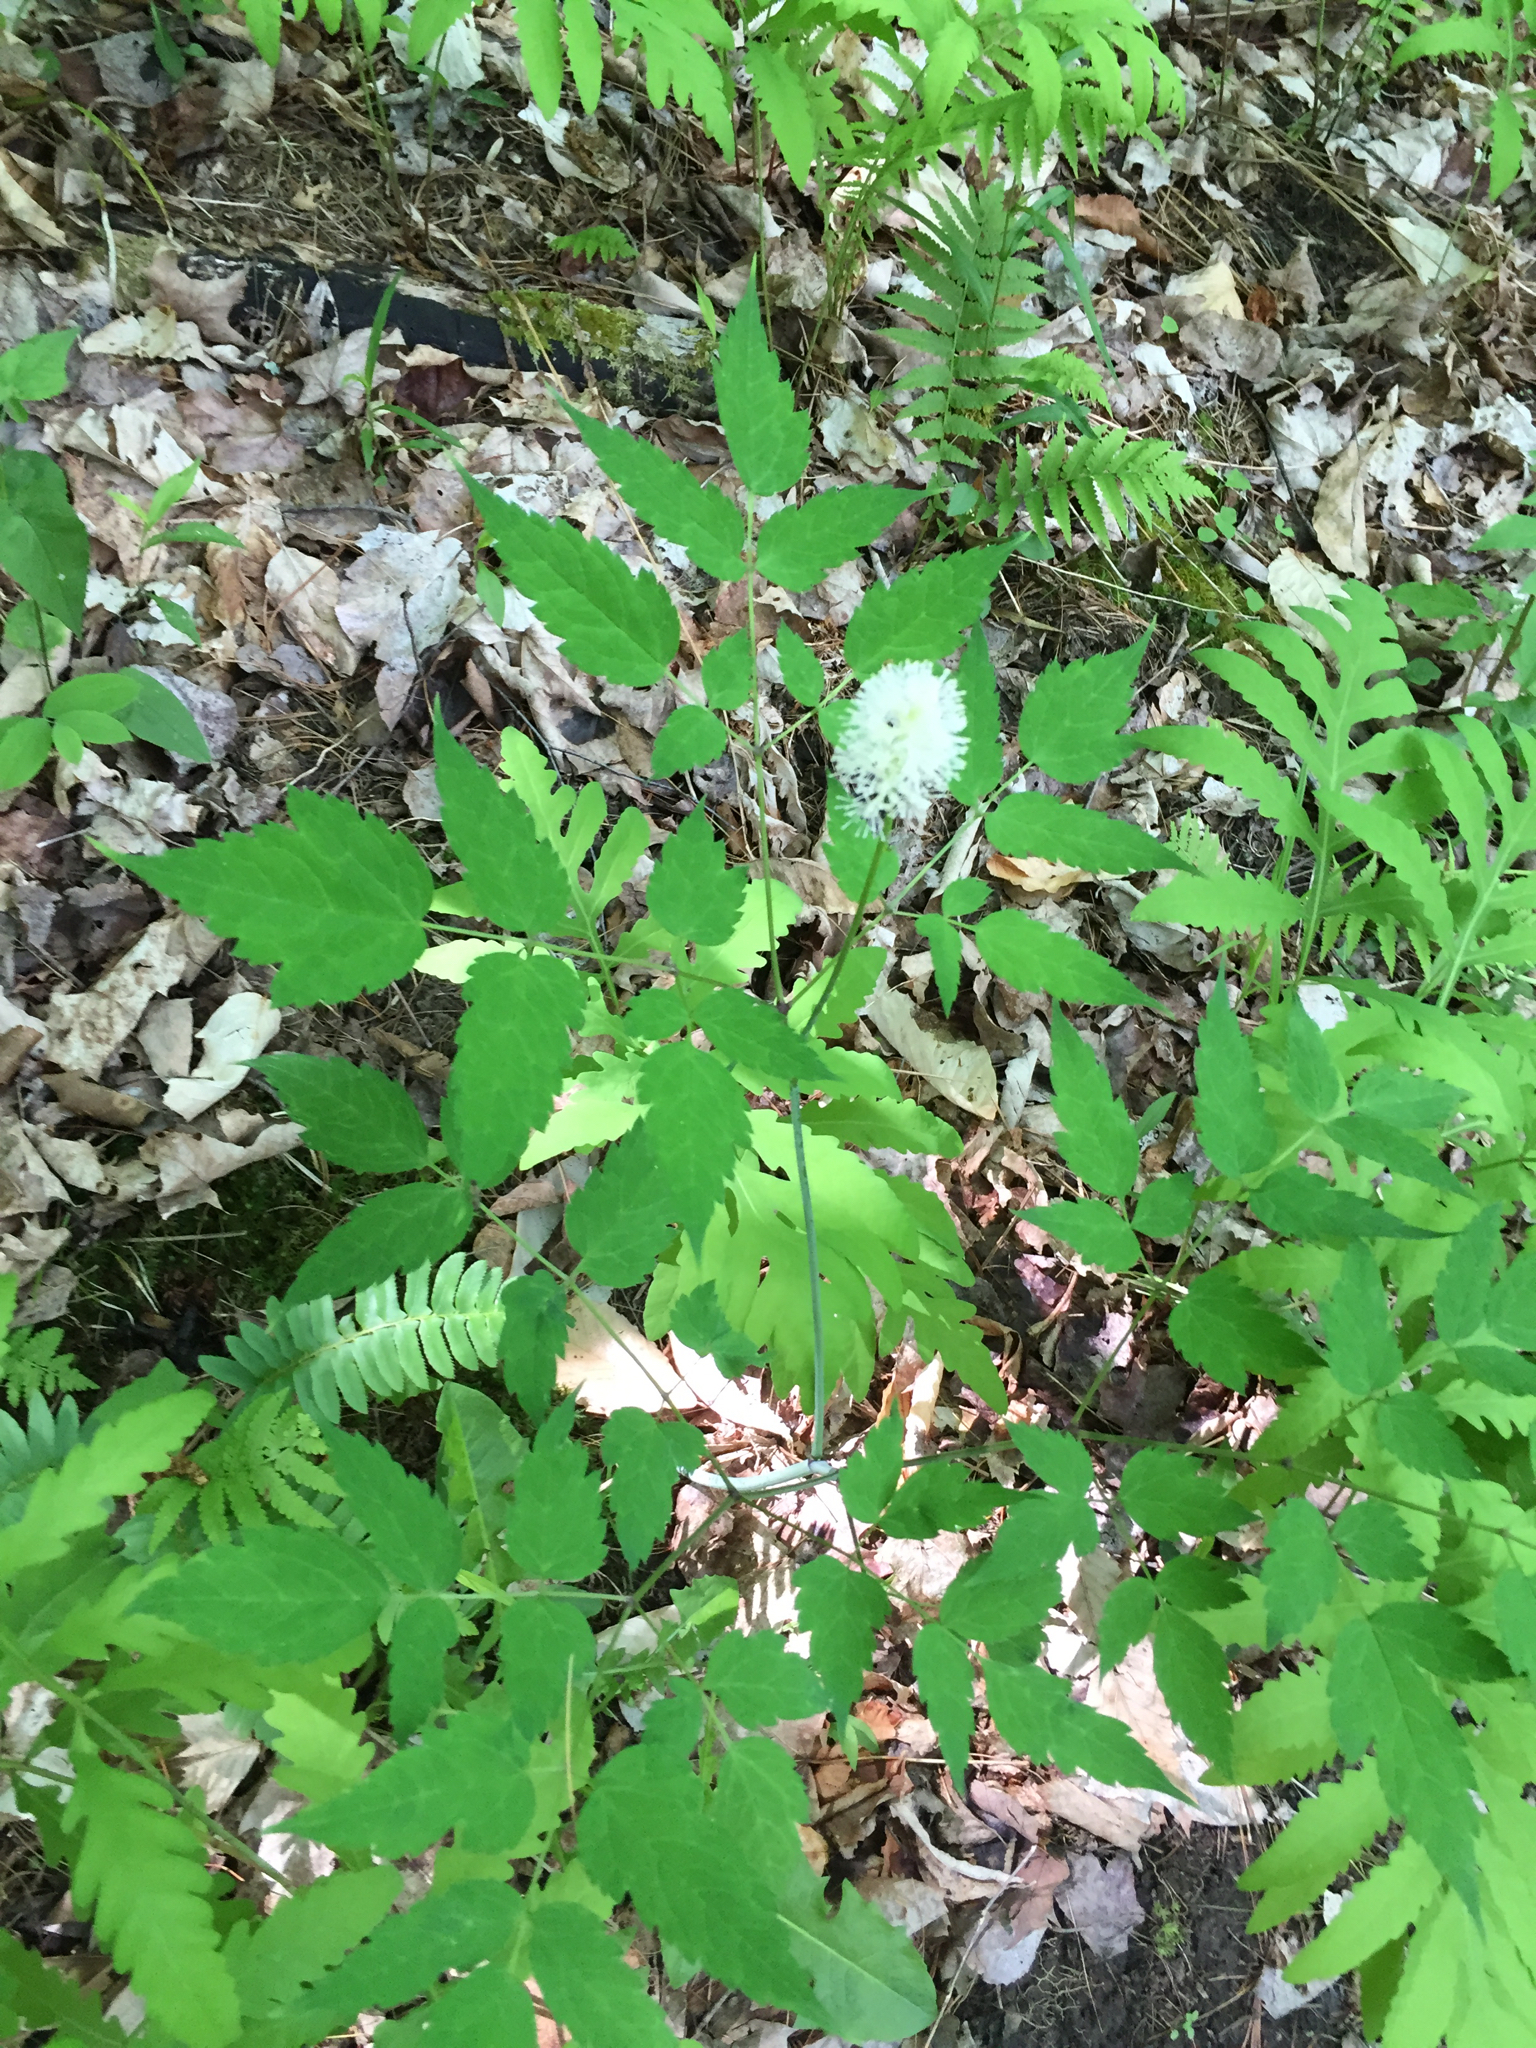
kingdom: Plantae
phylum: Tracheophyta
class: Magnoliopsida
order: Ranunculales
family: Ranunculaceae
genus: Actaea
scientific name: Actaea rubra
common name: Red baneberry
